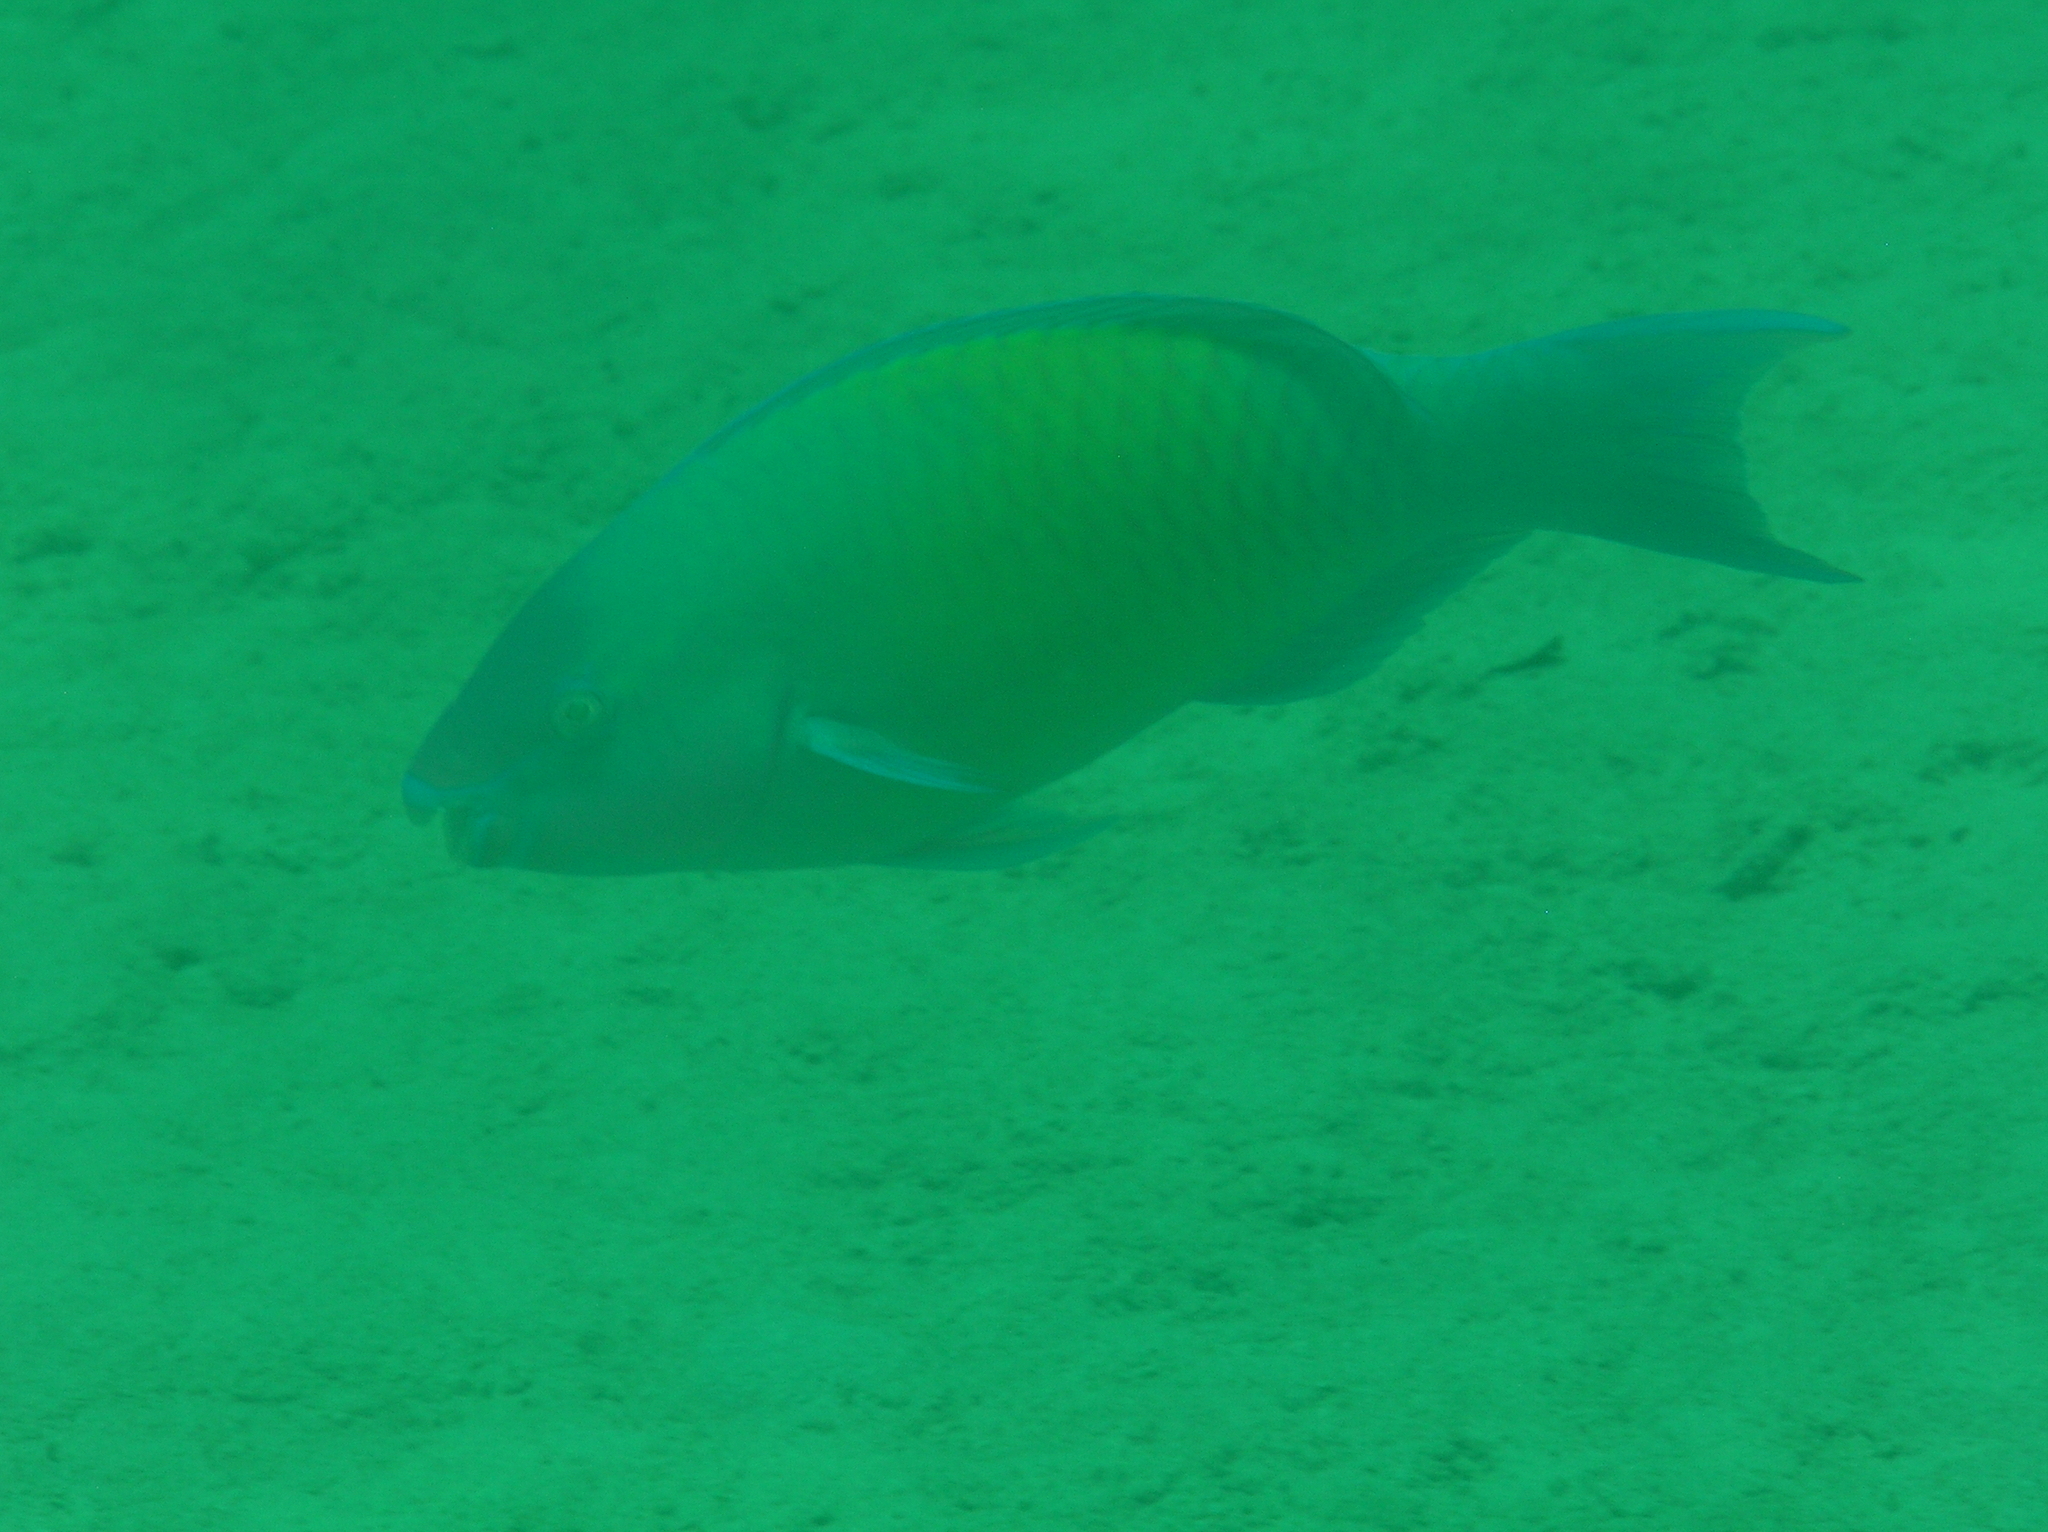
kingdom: Animalia
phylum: Chordata
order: Perciformes
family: Scaridae
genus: Scarus
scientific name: Scarus psittacus
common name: Palenose parrotfish
